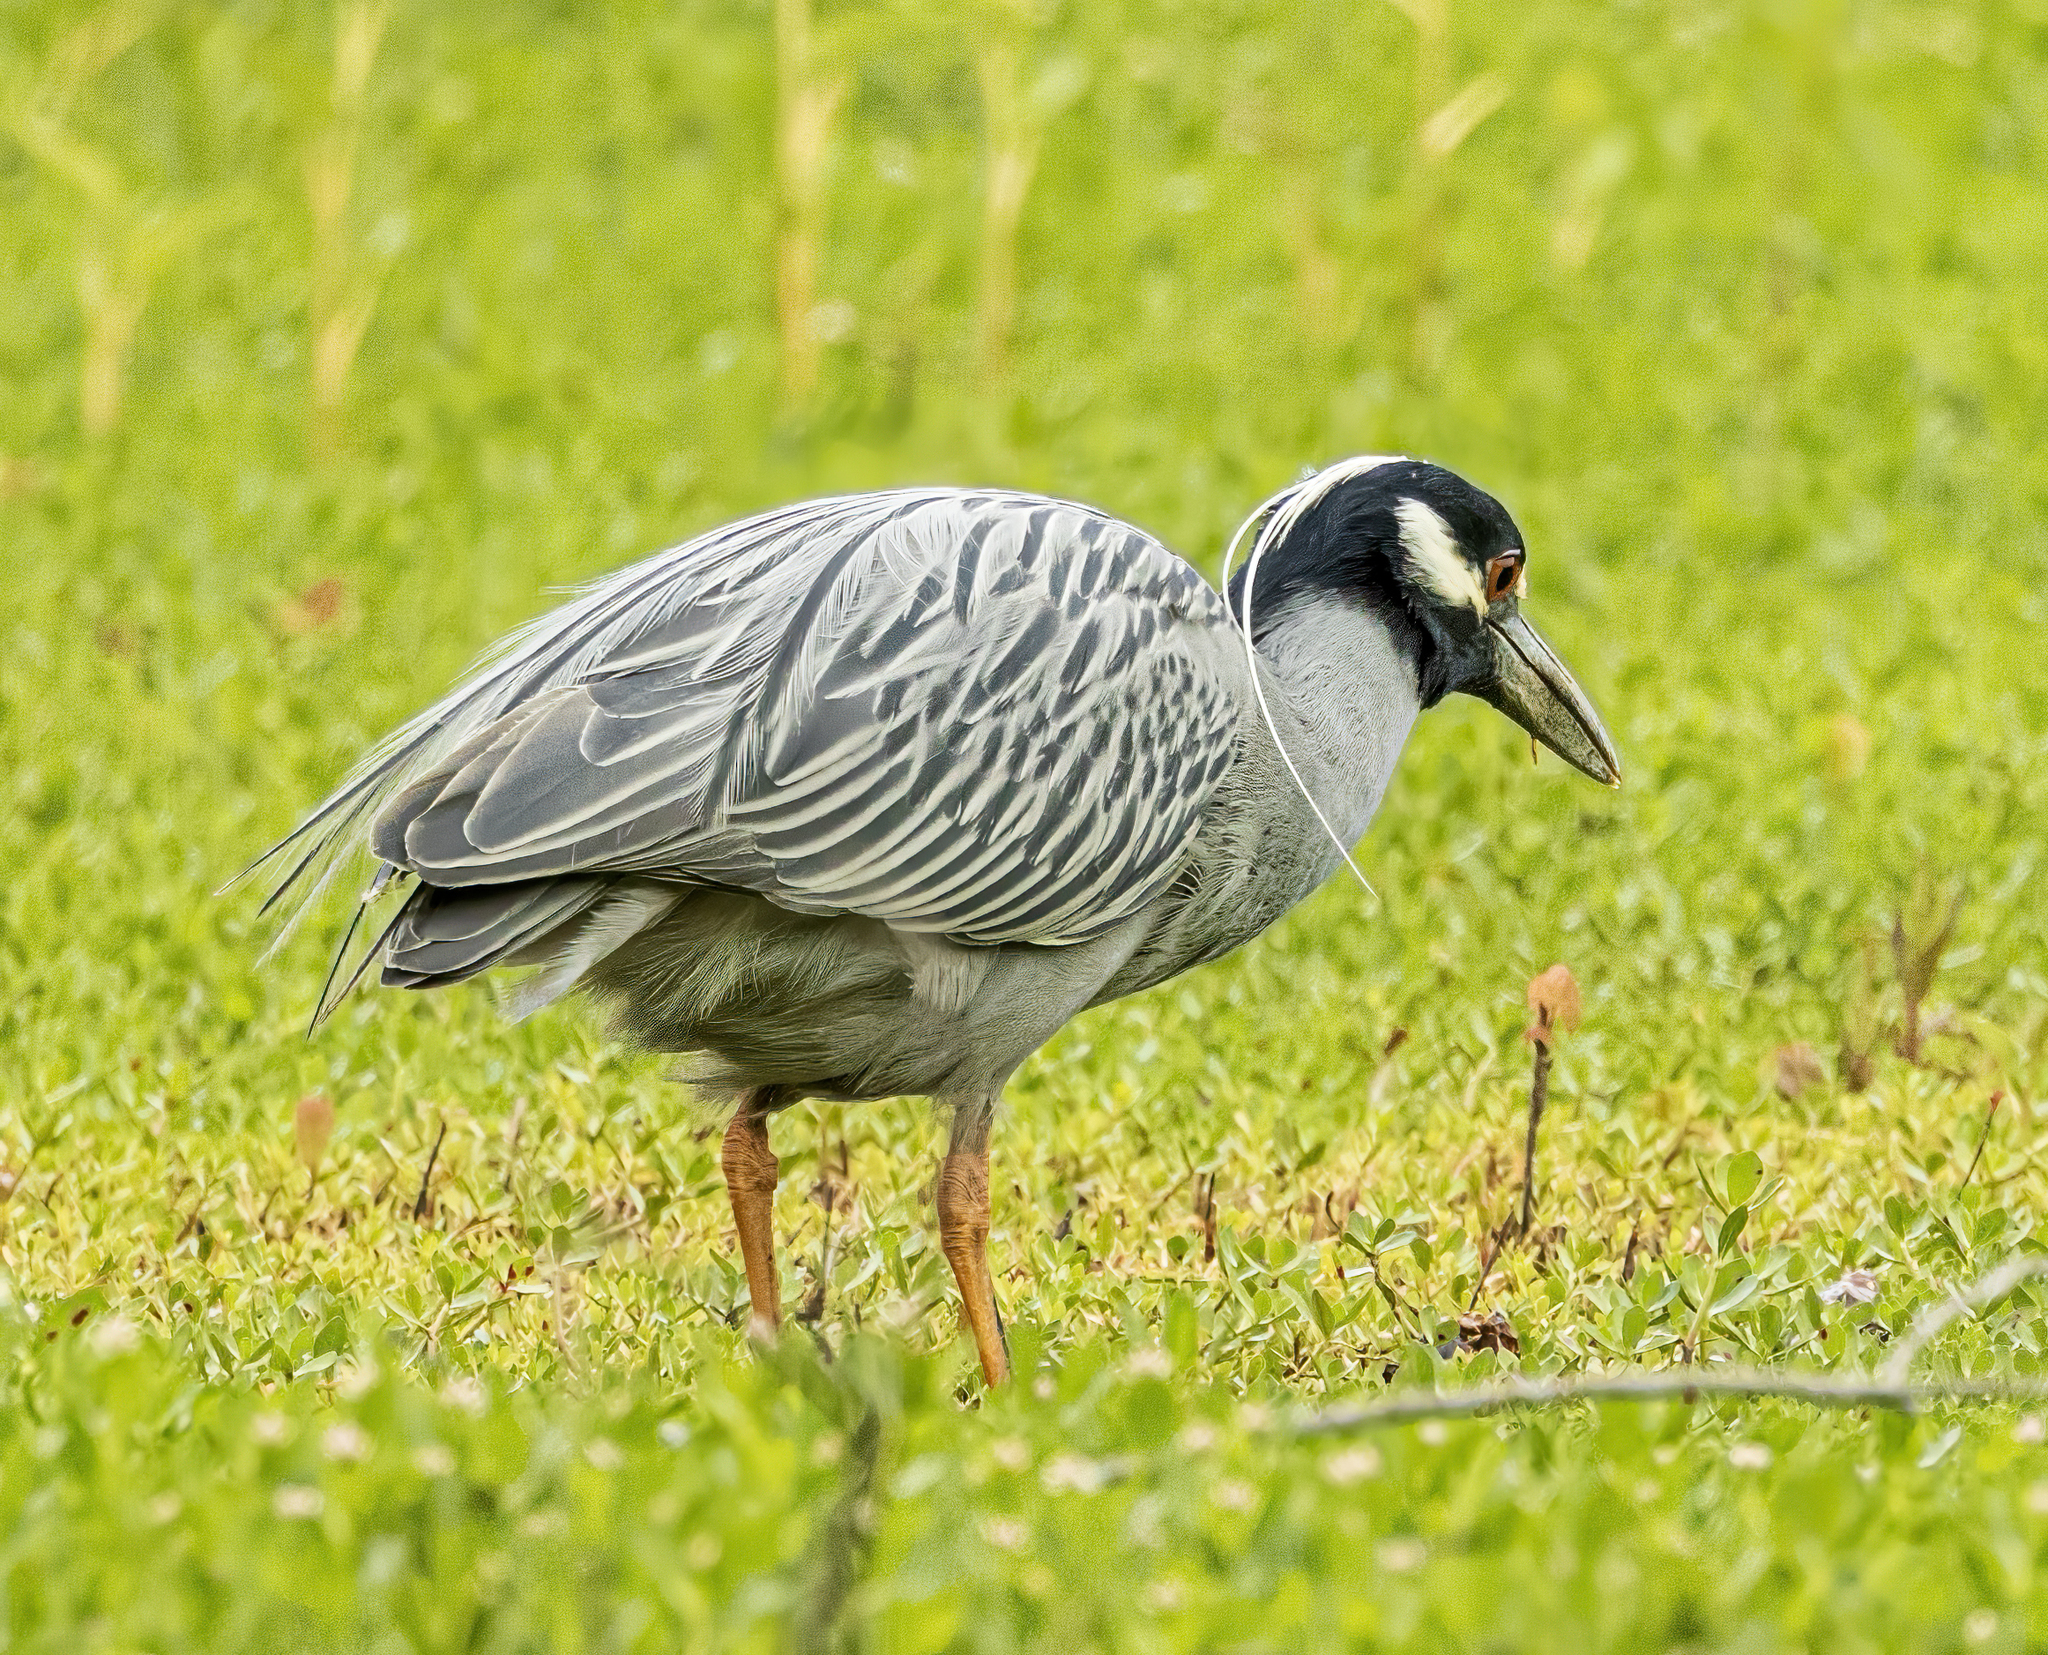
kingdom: Animalia
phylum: Chordata
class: Aves
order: Pelecaniformes
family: Ardeidae
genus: Nyctanassa
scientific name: Nyctanassa violacea
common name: Yellow-crowned night heron
